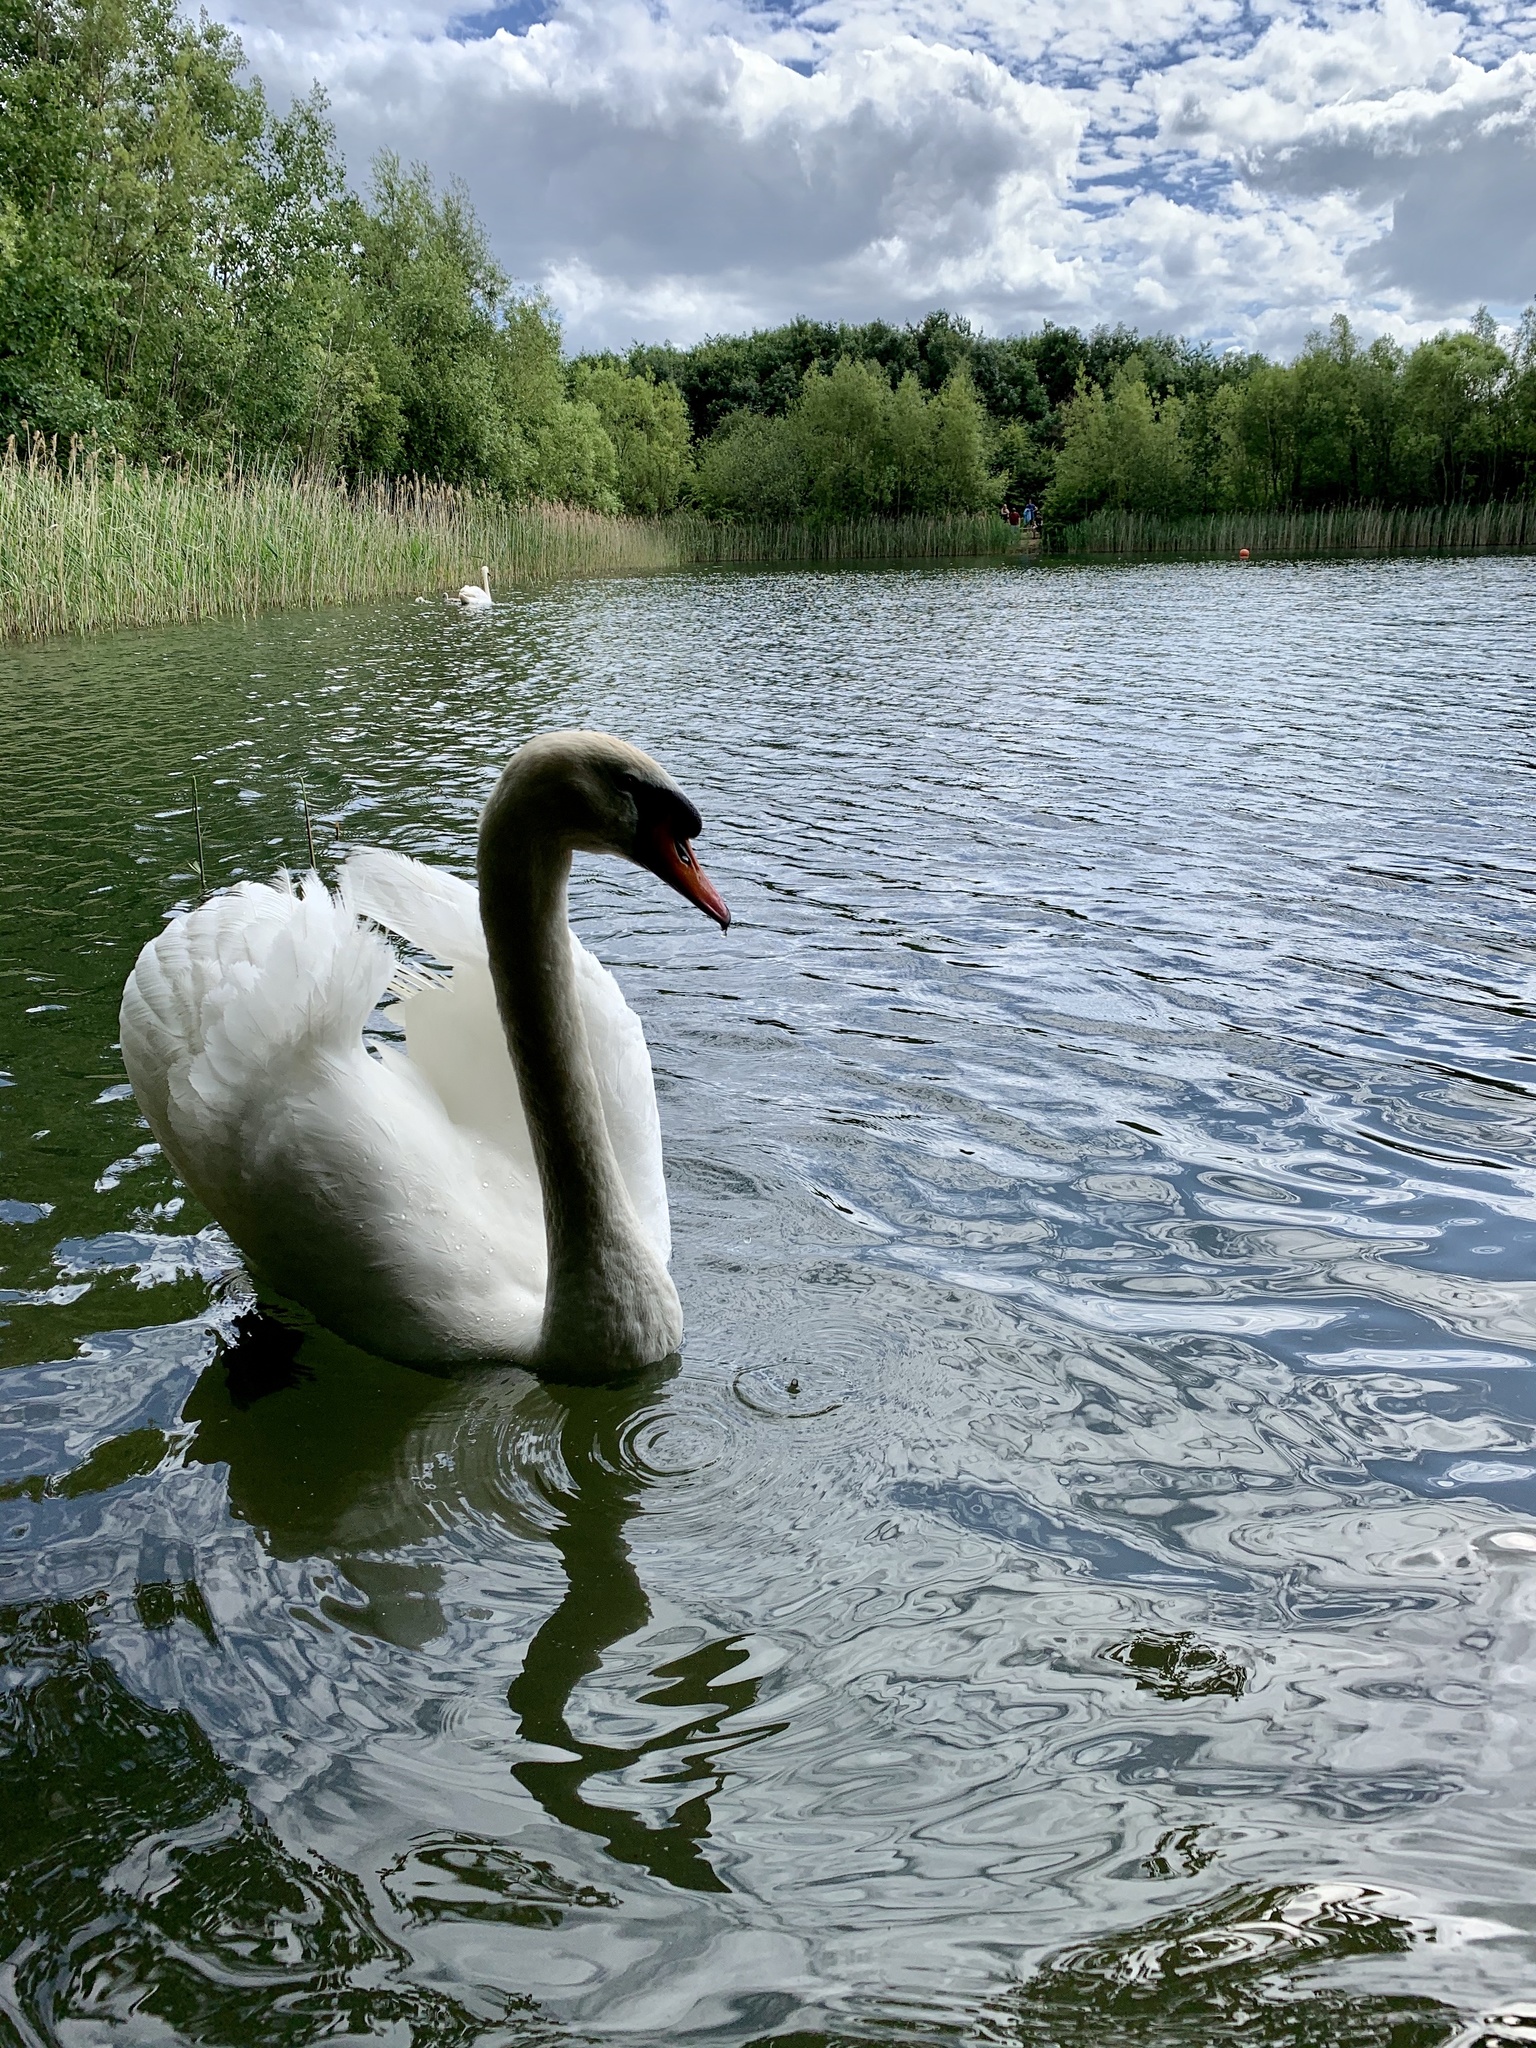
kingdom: Animalia
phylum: Chordata
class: Aves
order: Anseriformes
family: Anatidae
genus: Cygnus
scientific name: Cygnus olor
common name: Mute swan
